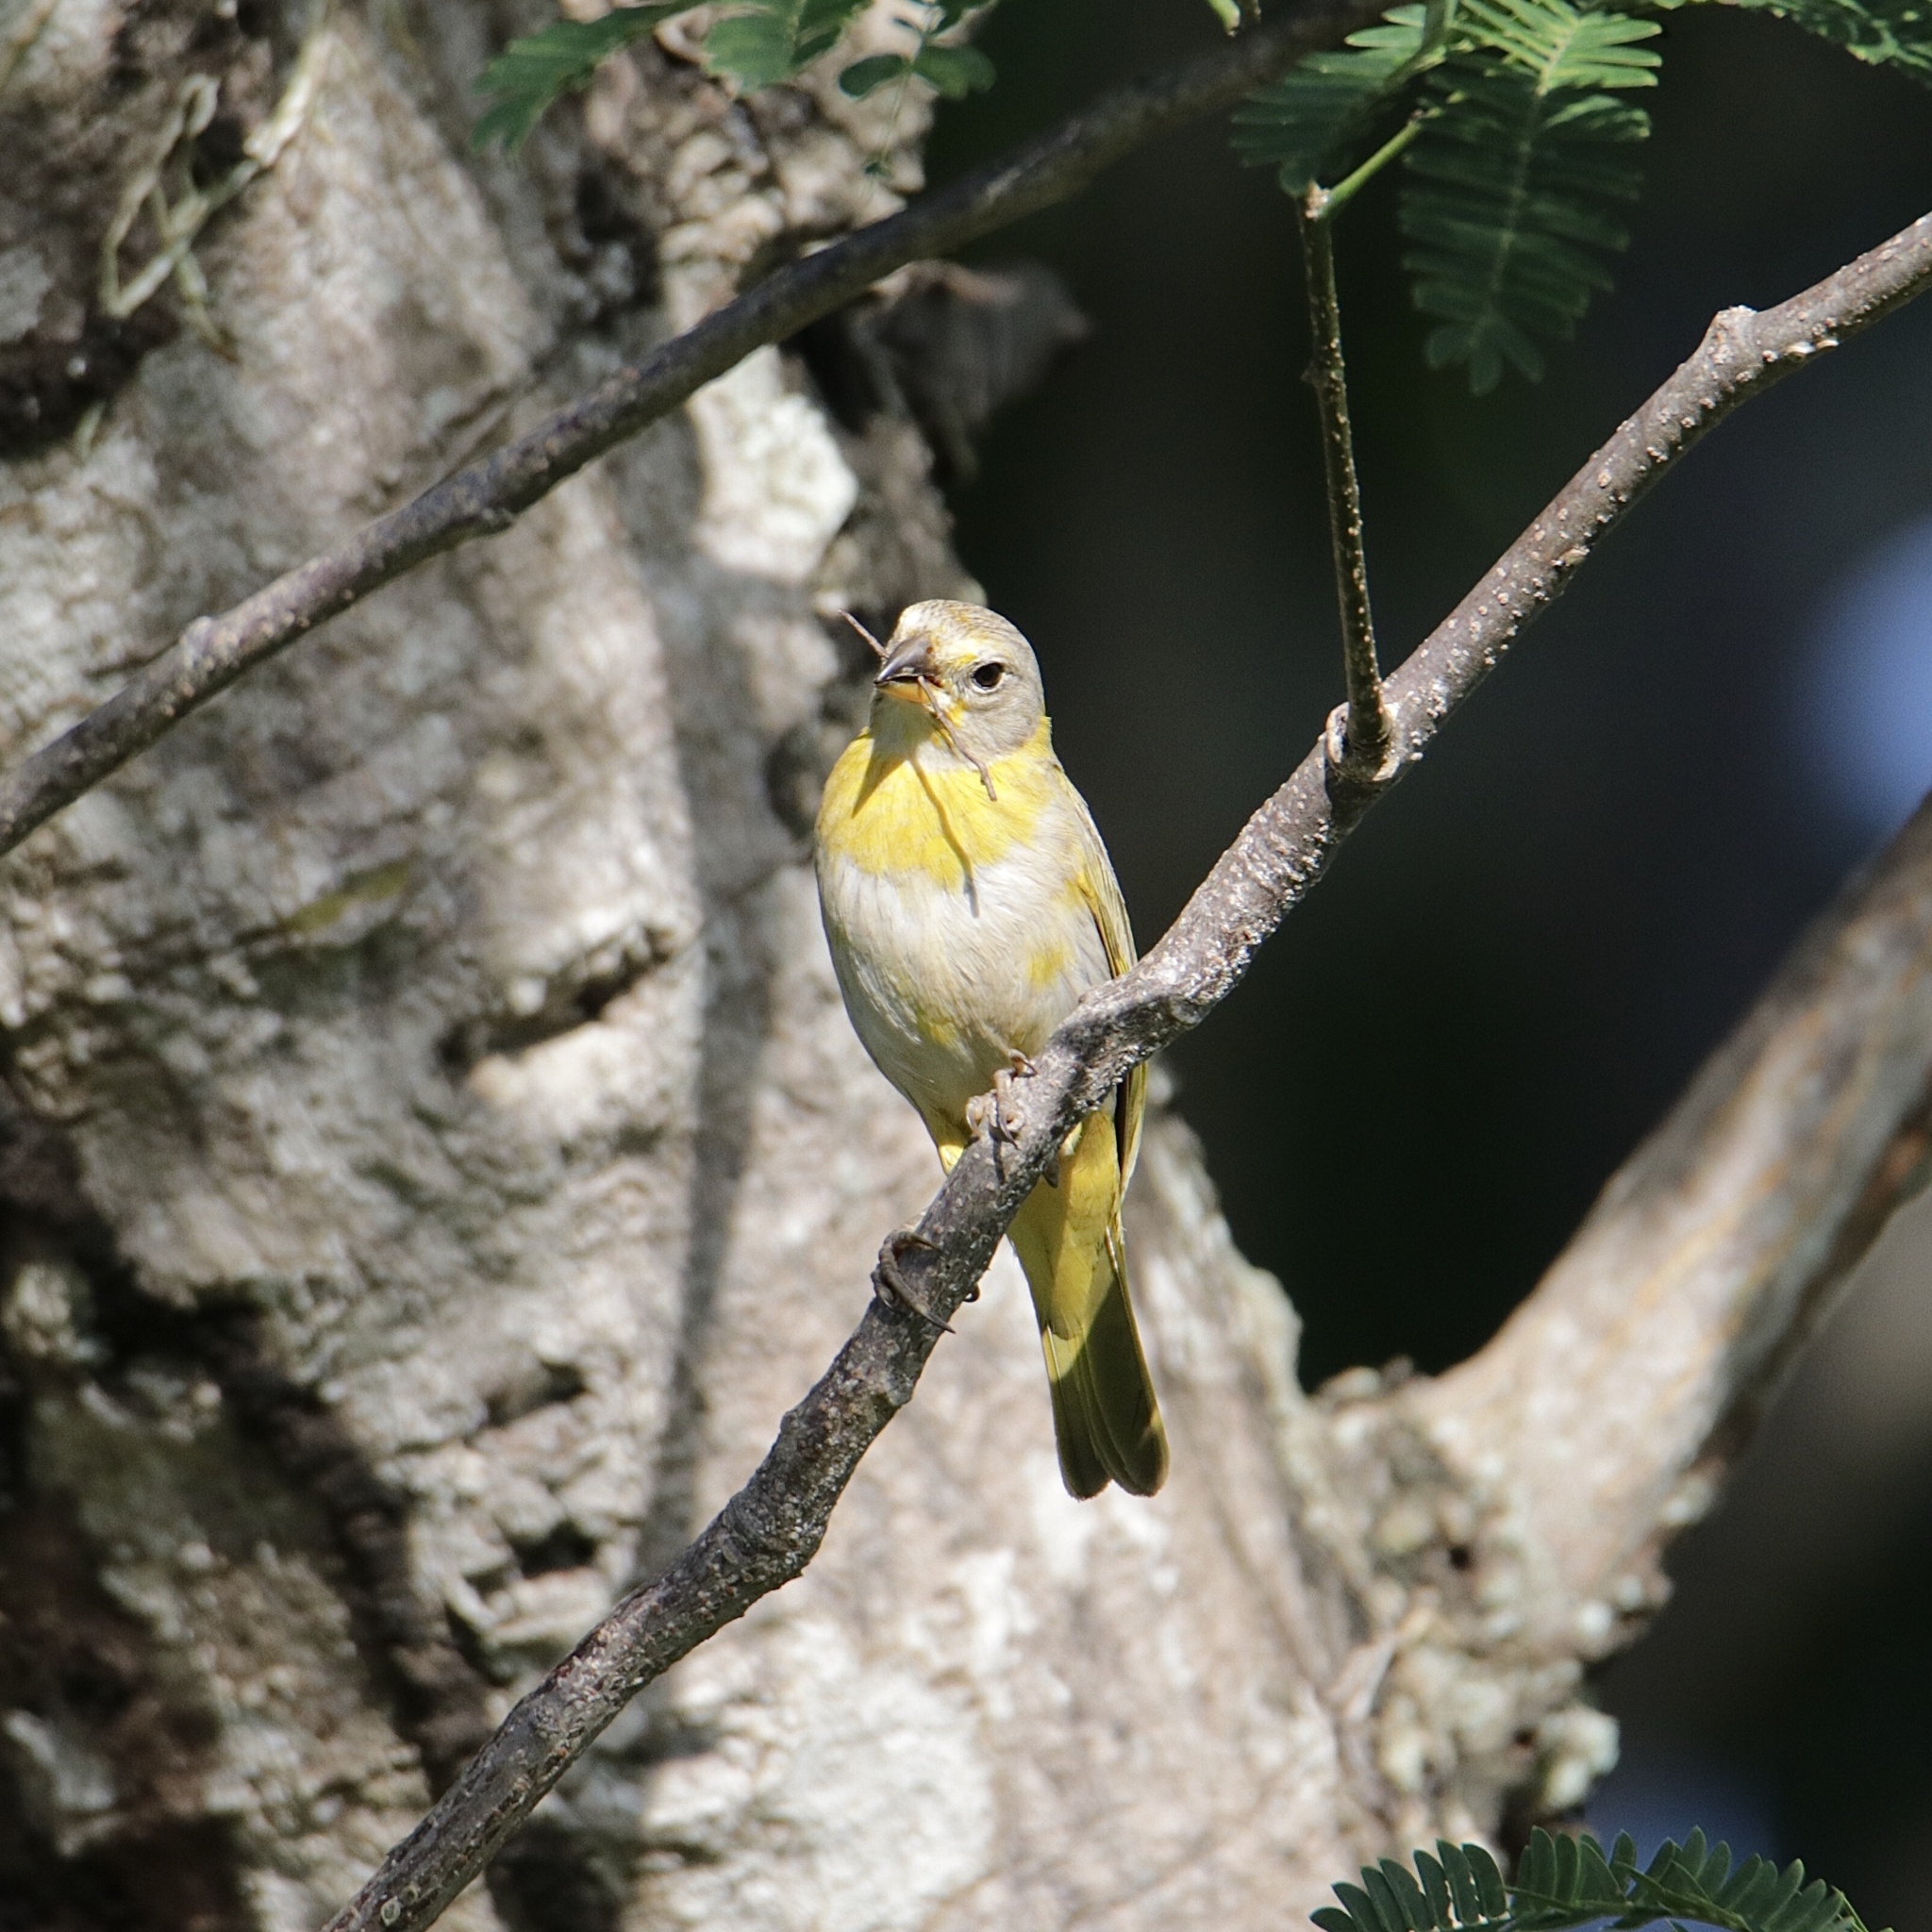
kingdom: Animalia
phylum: Chordata
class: Aves
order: Passeriformes
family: Thraupidae
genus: Sicalis
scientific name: Sicalis flaveola
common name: Saffron finch
